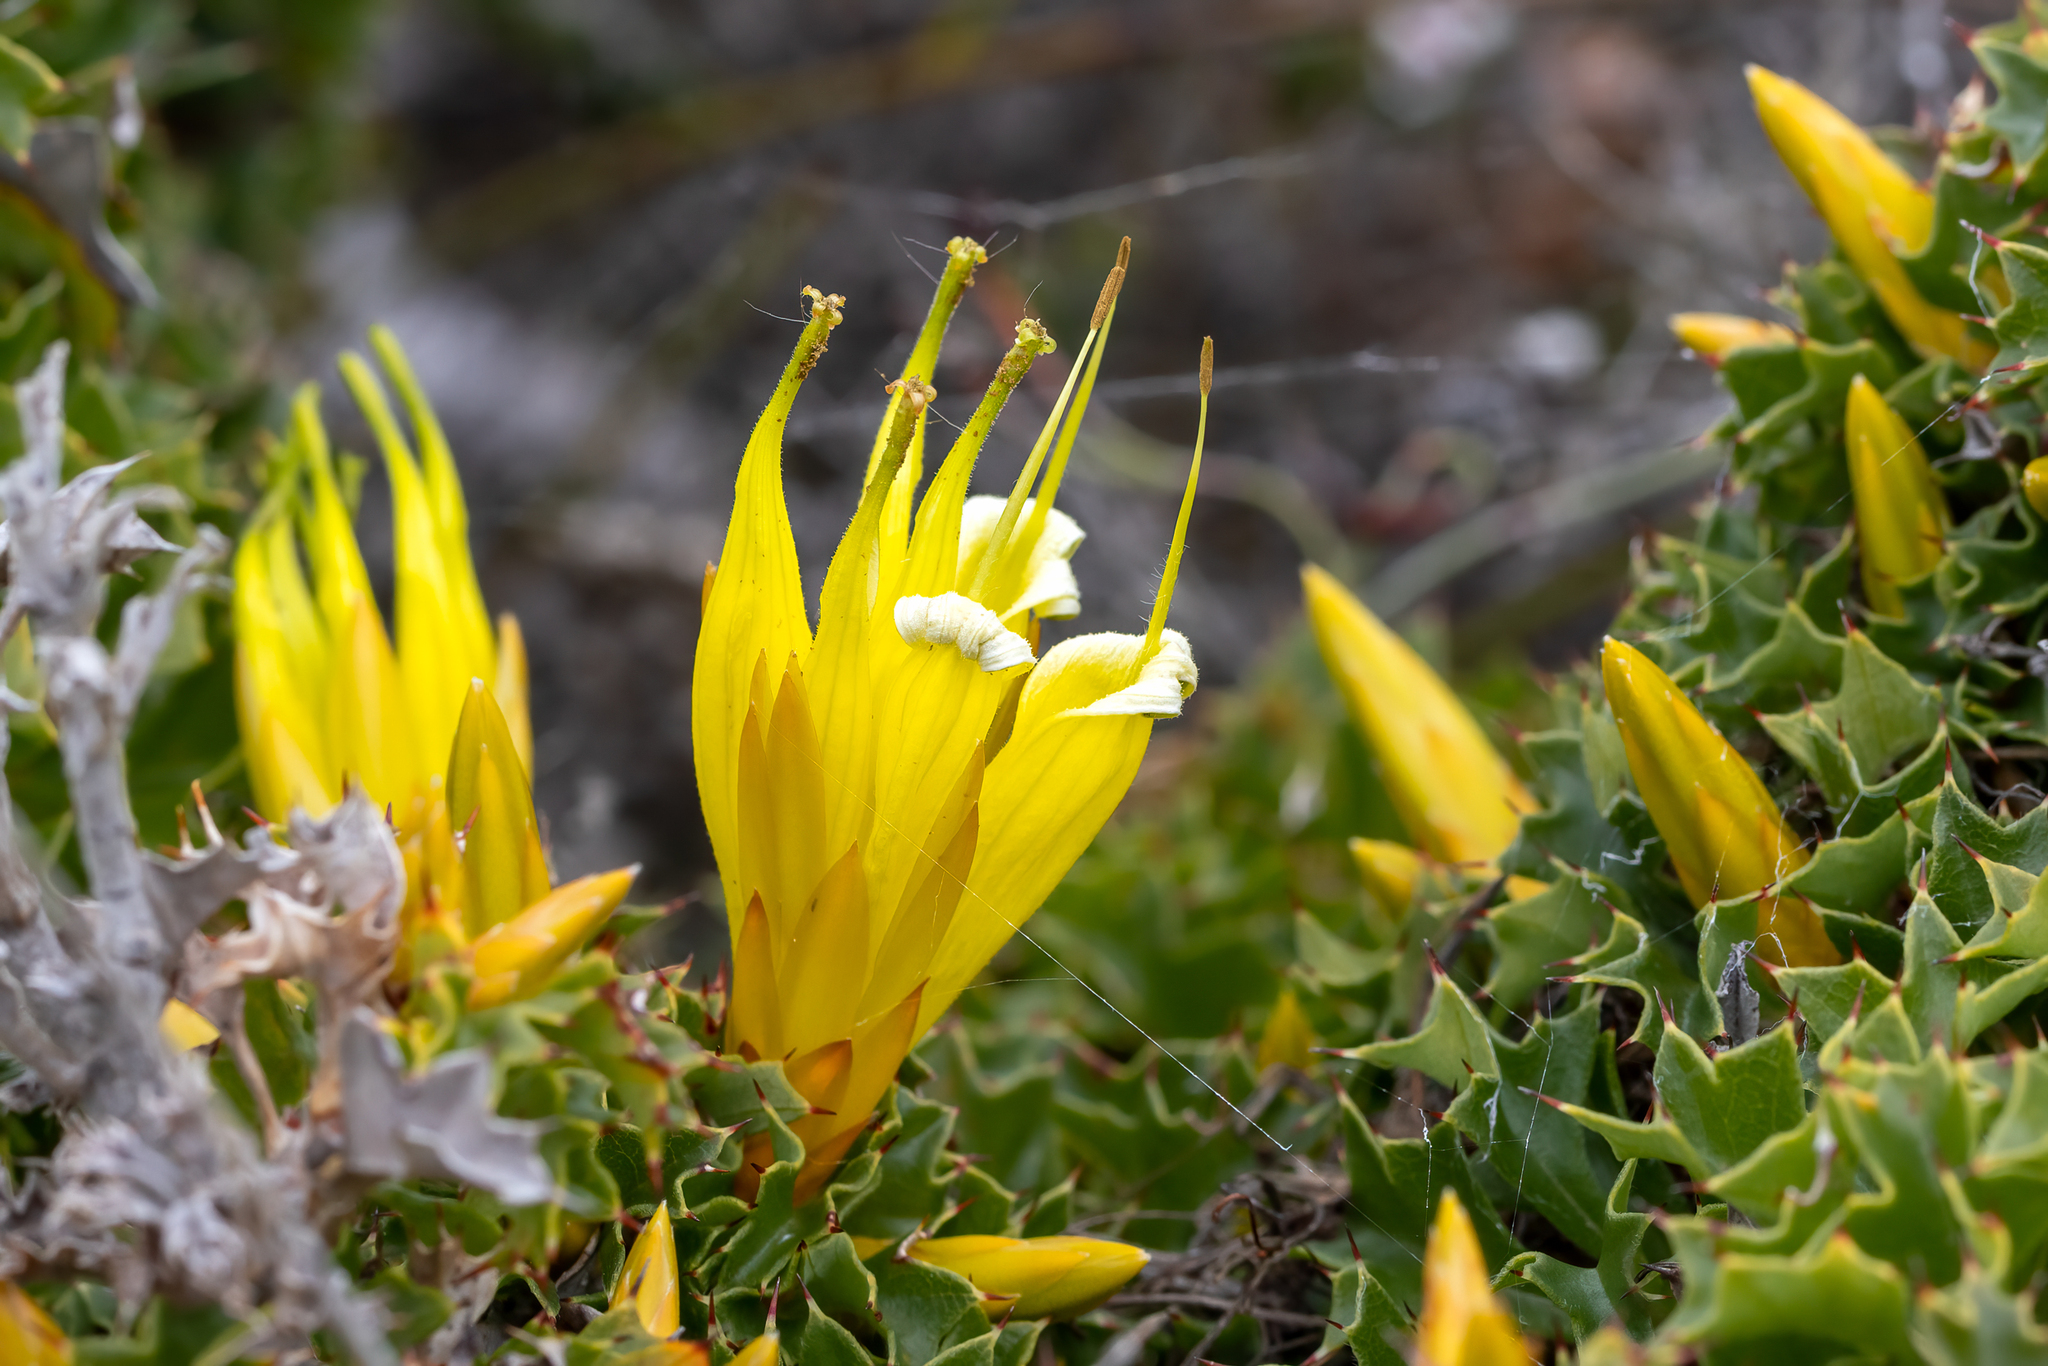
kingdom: Plantae
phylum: Tracheophyta
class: Magnoliopsida
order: Proteales
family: Proteaceae
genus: Lambertia
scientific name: Lambertia echinata
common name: Prickly honeysuckle
